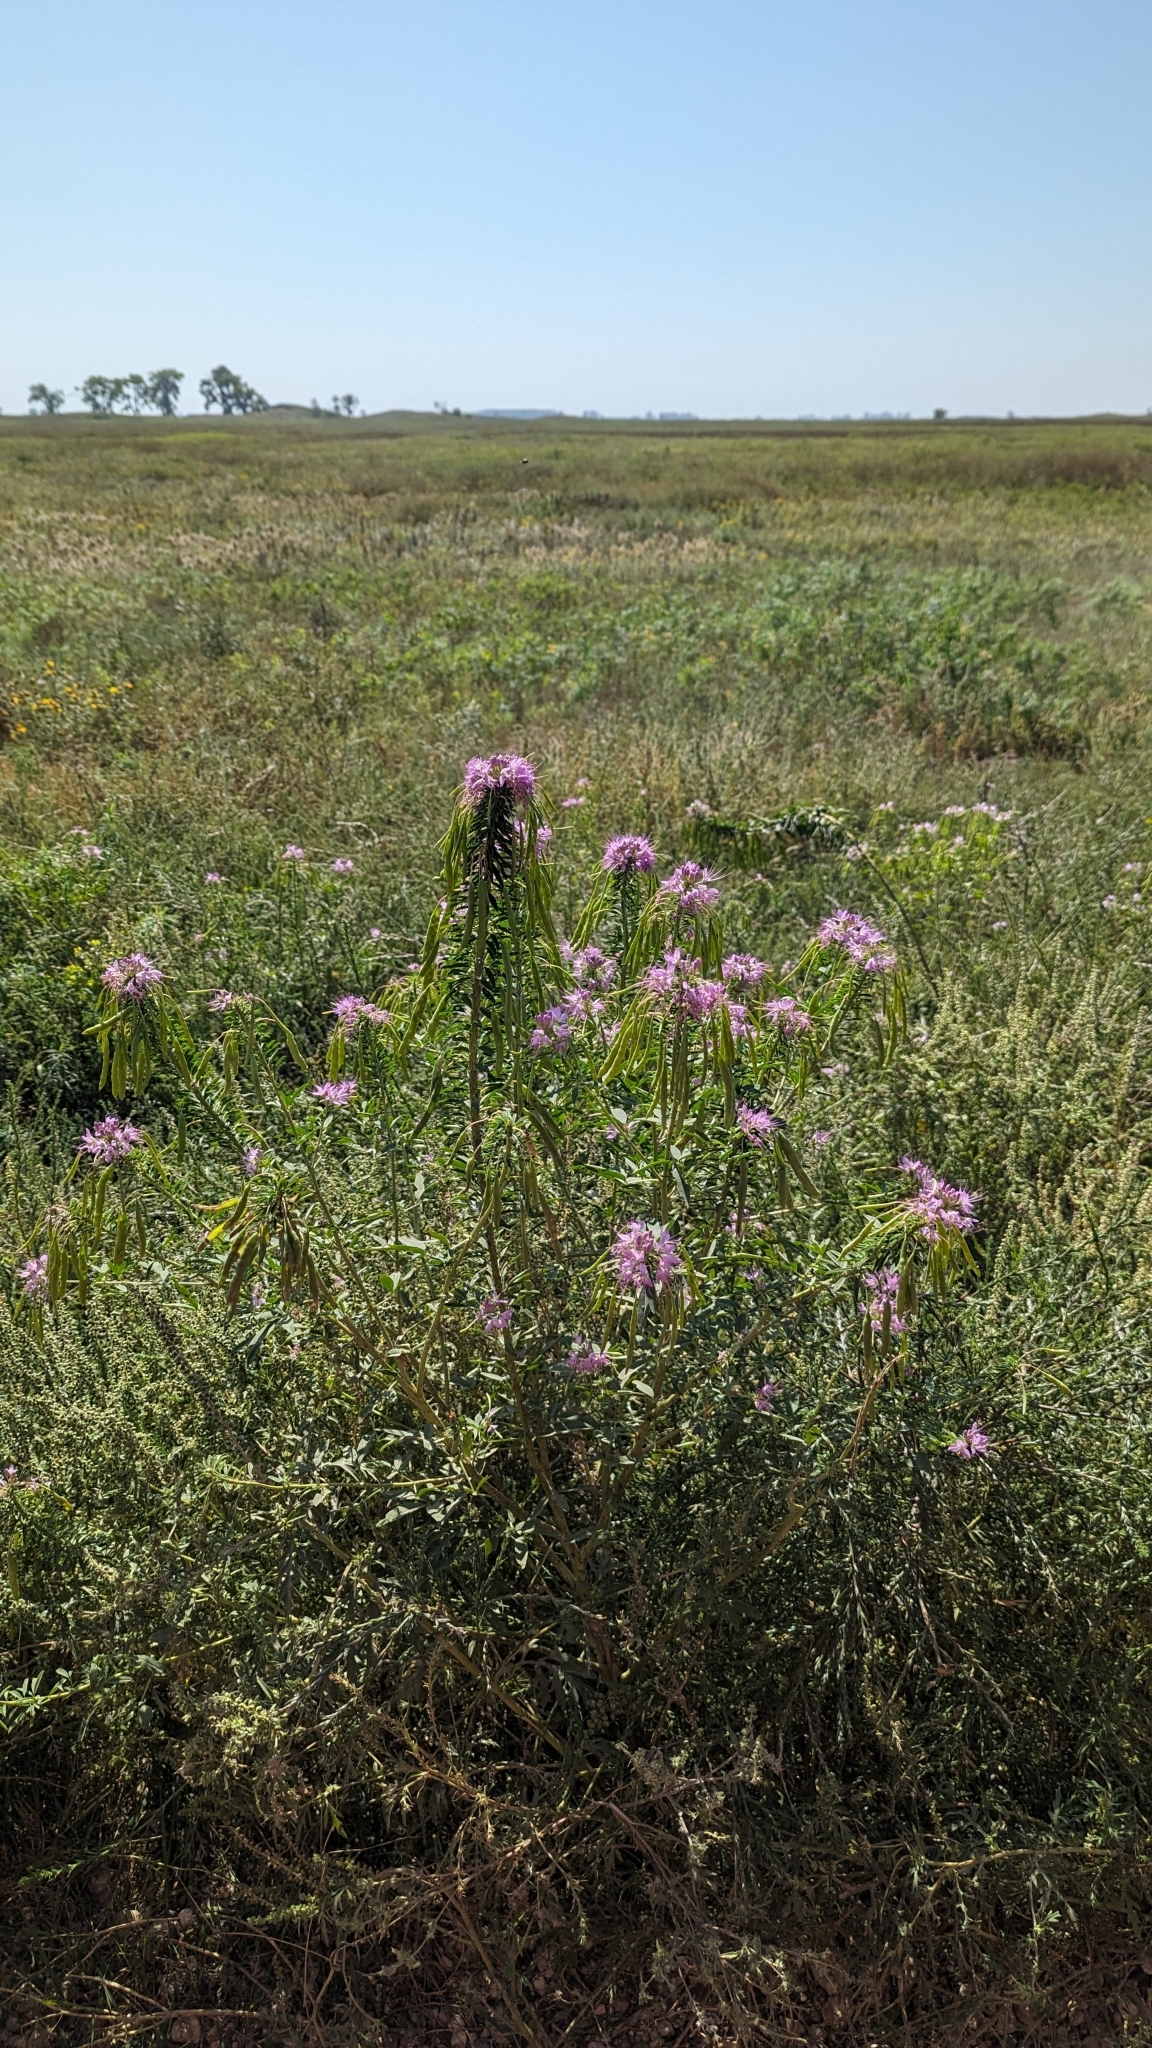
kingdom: Plantae
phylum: Tracheophyta
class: Magnoliopsida
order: Brassicales
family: Cleomaceae
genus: Cleomella
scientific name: Cleomella serrulata
